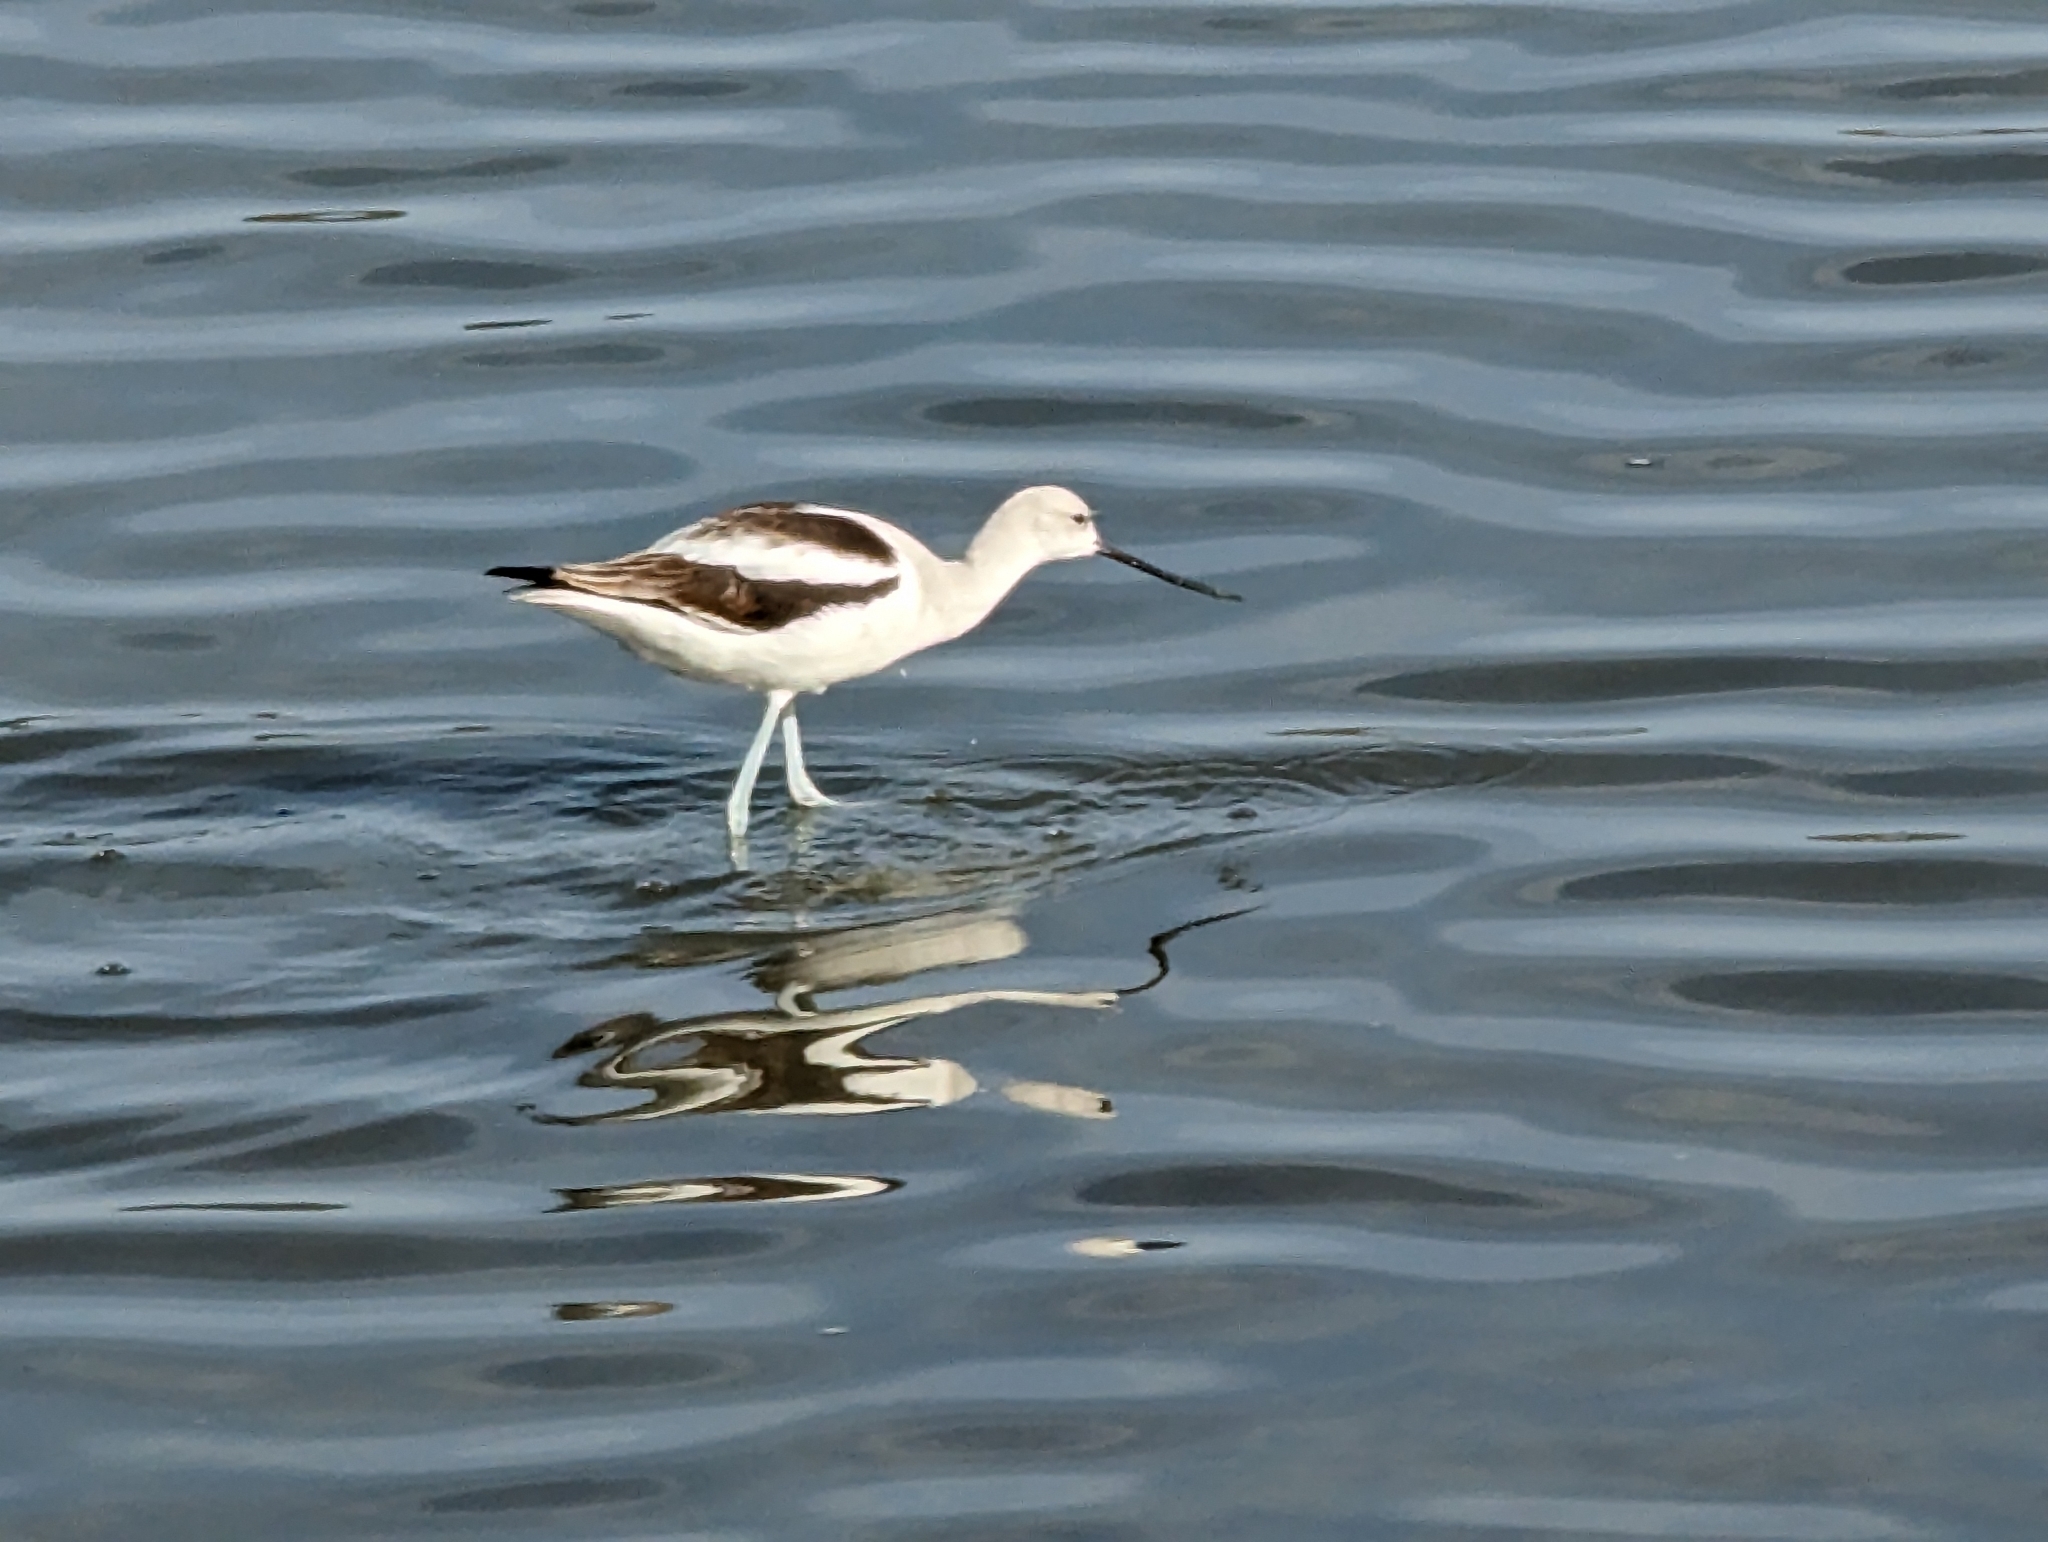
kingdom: Animalia
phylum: Chordata
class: Aves
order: Charadriiformes
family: Recurvirostridae
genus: Recurvirostra
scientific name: Recurvirostra americana
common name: American avocet
